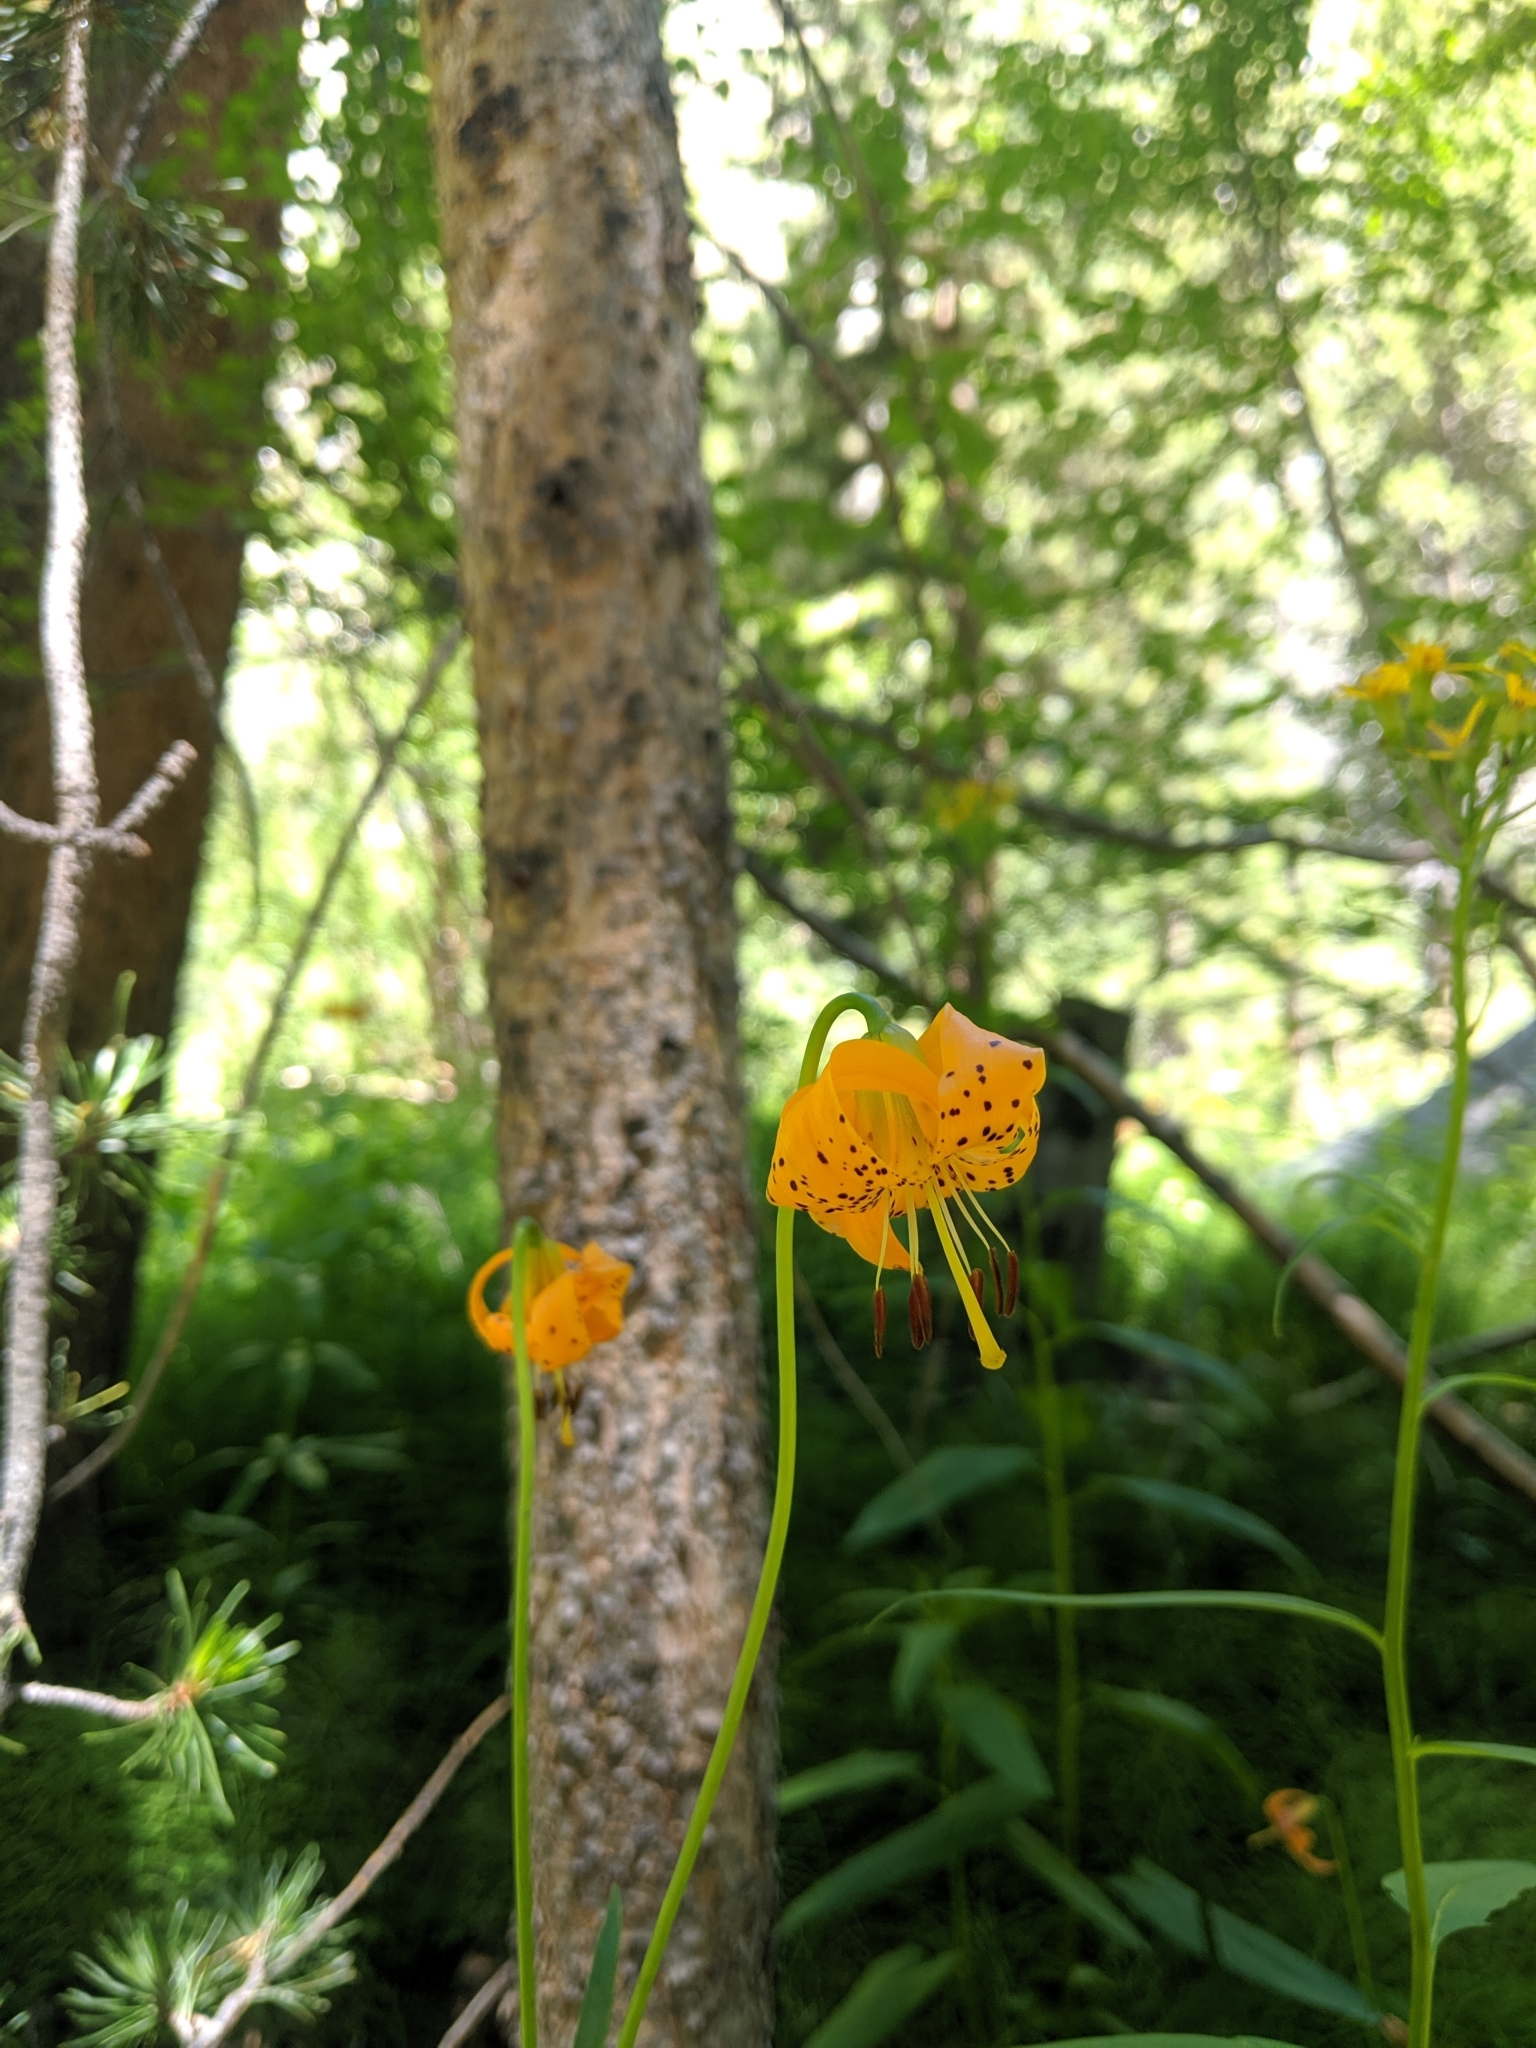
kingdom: Plantae
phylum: Tracheophyta
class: Liliopsida
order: Liliales
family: Liliaceae
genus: Lilium
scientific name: Lilium kelleyanum
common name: Kelley's lily
